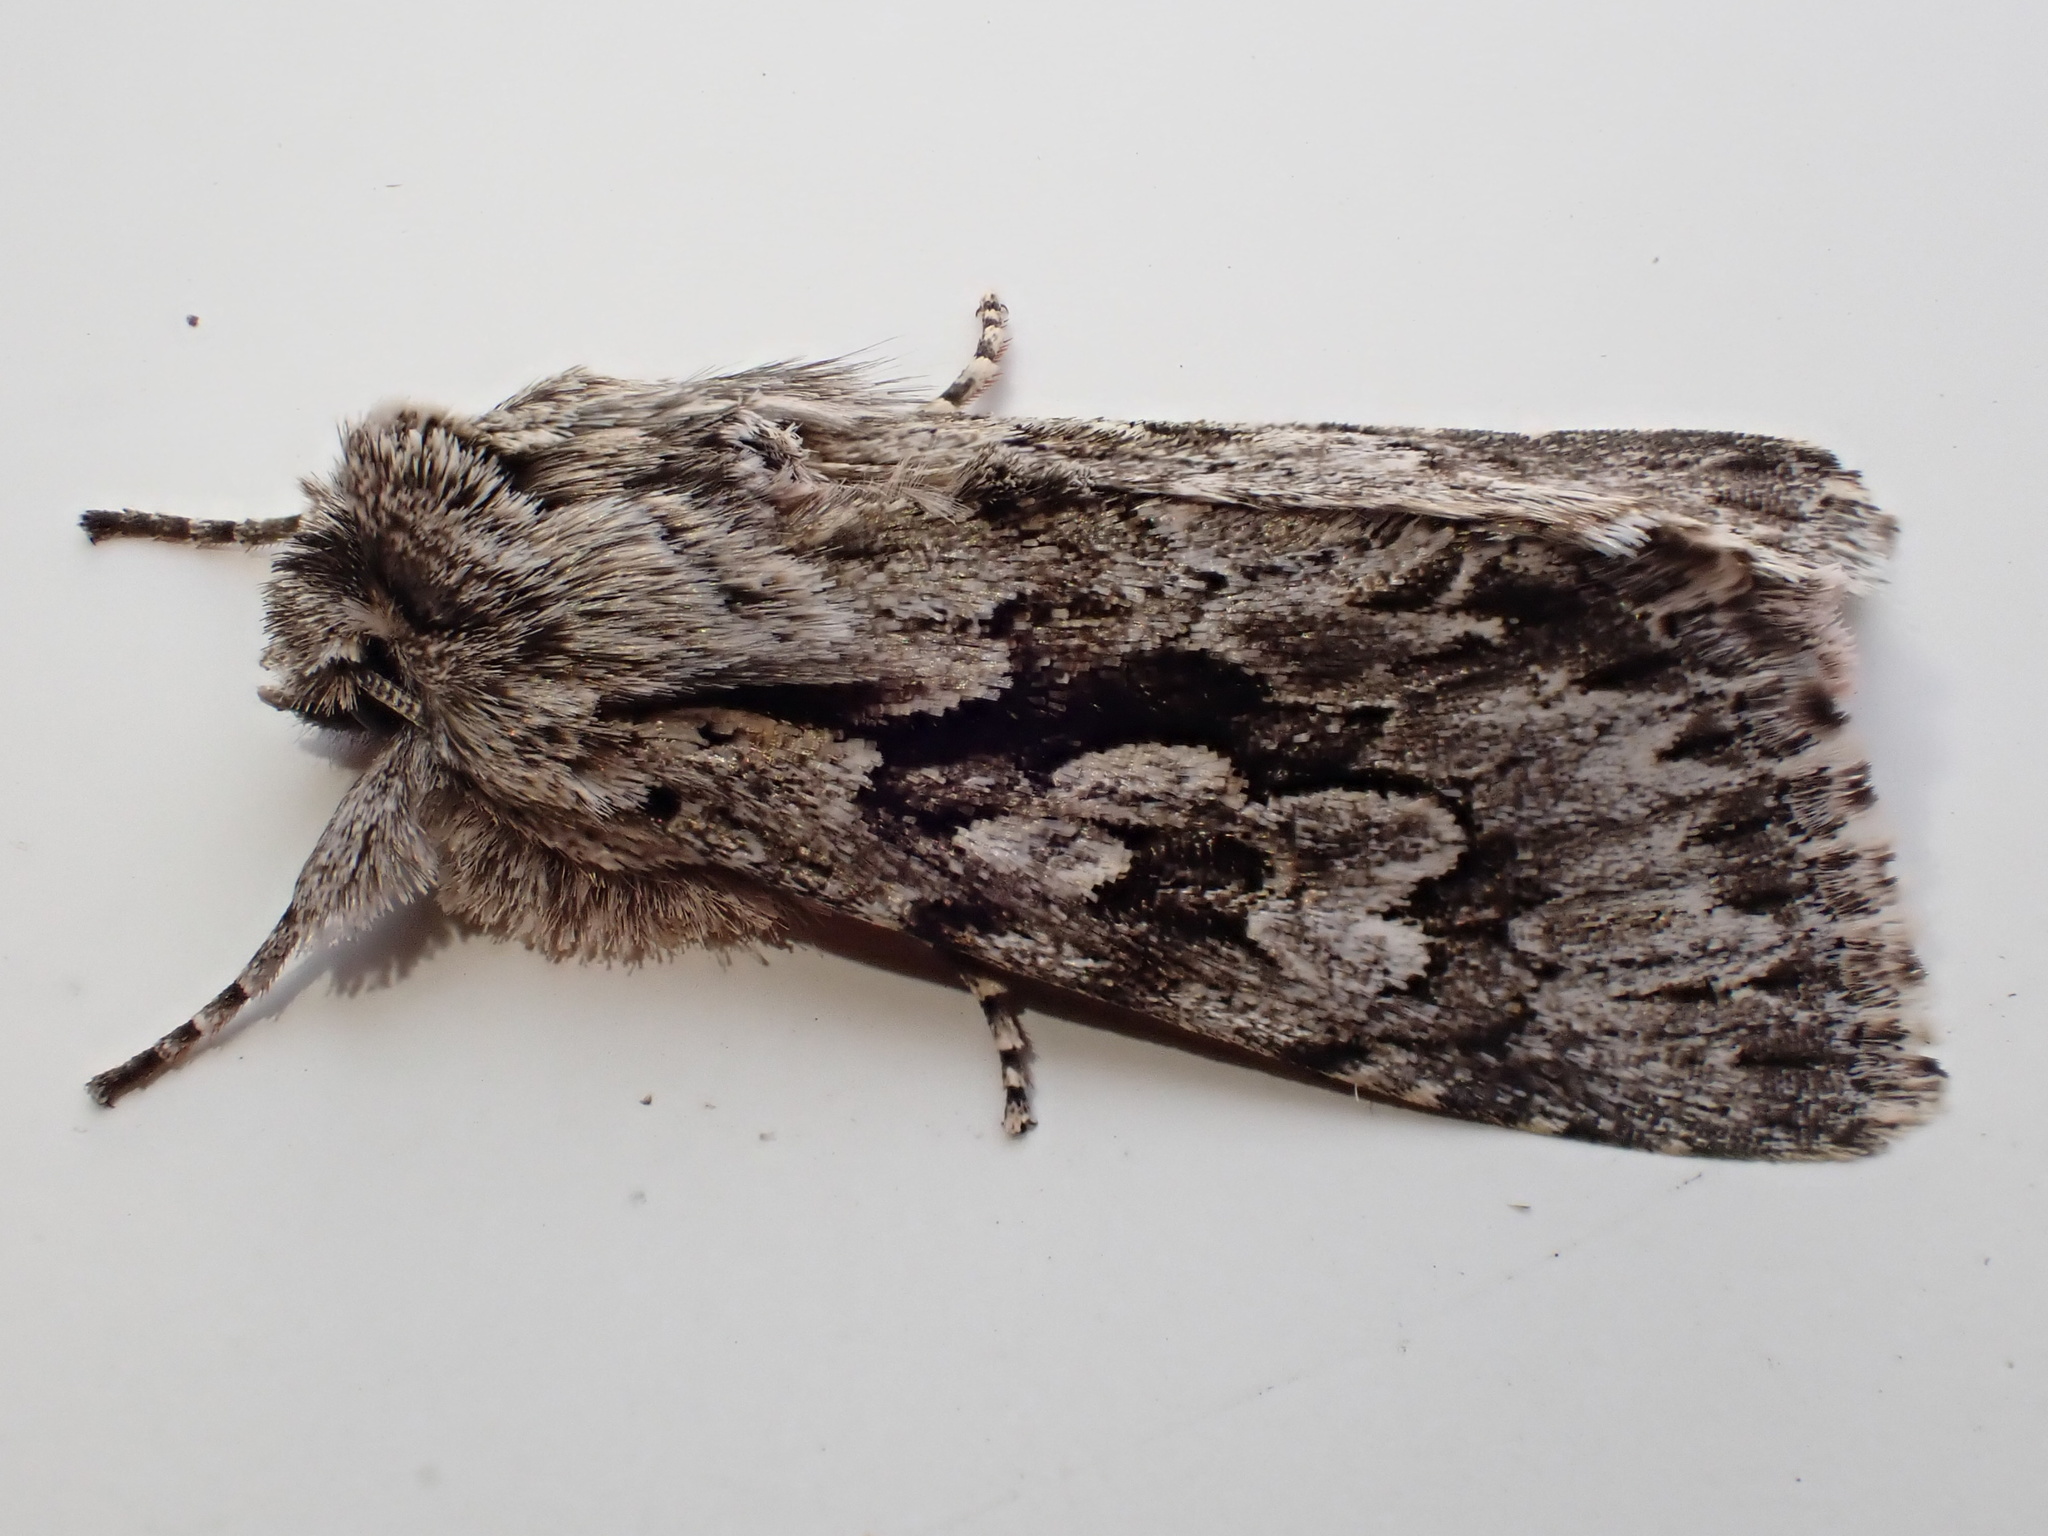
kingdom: Animalia
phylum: Arthropoda
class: Insecta
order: Lepidoptera
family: Noctuidae
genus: Xylocampa
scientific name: Xylocampa areola
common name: Early grey
